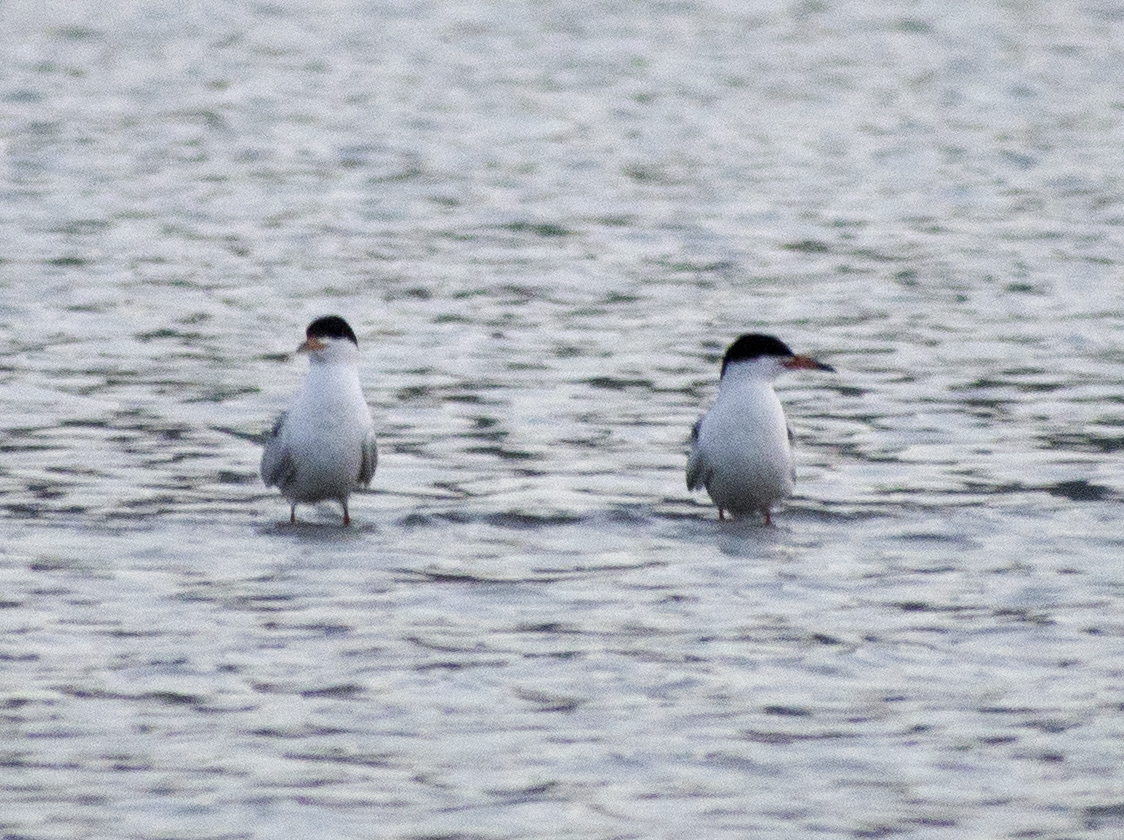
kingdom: Animalia
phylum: Chordata
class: Aves
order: Charadriiformes
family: Laridae
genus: Sterna
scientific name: Sterna forsteri
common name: Forster's tern
